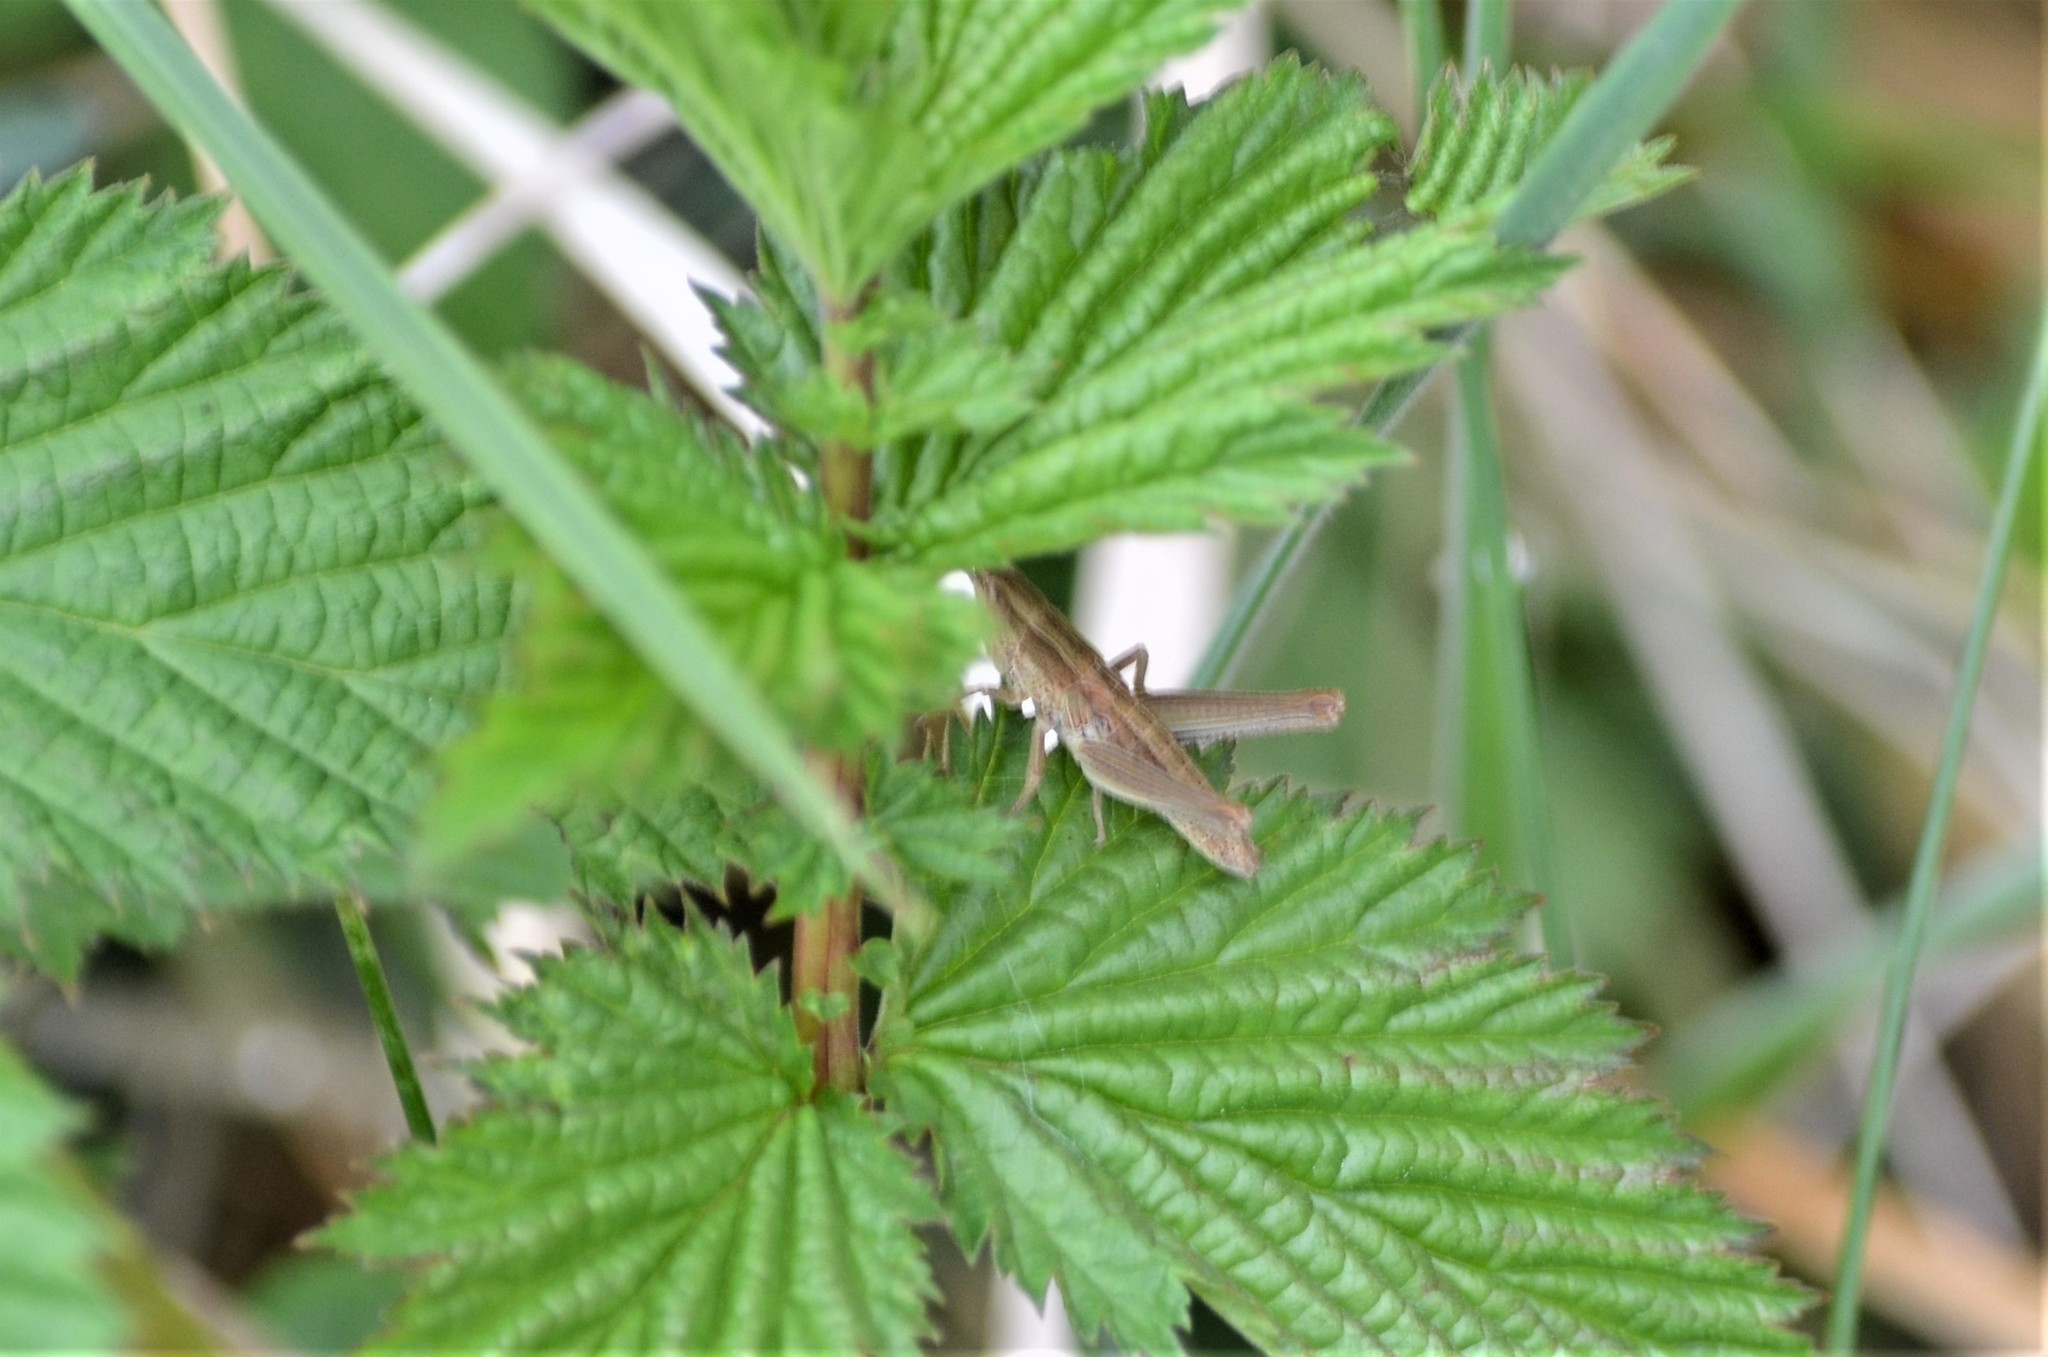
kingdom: Animalia
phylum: Arthropoda
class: Insecta
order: Orthoptera
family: Acrididae
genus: Euthystira
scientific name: Euthystira brachyptera
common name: Small gold grasshopper
